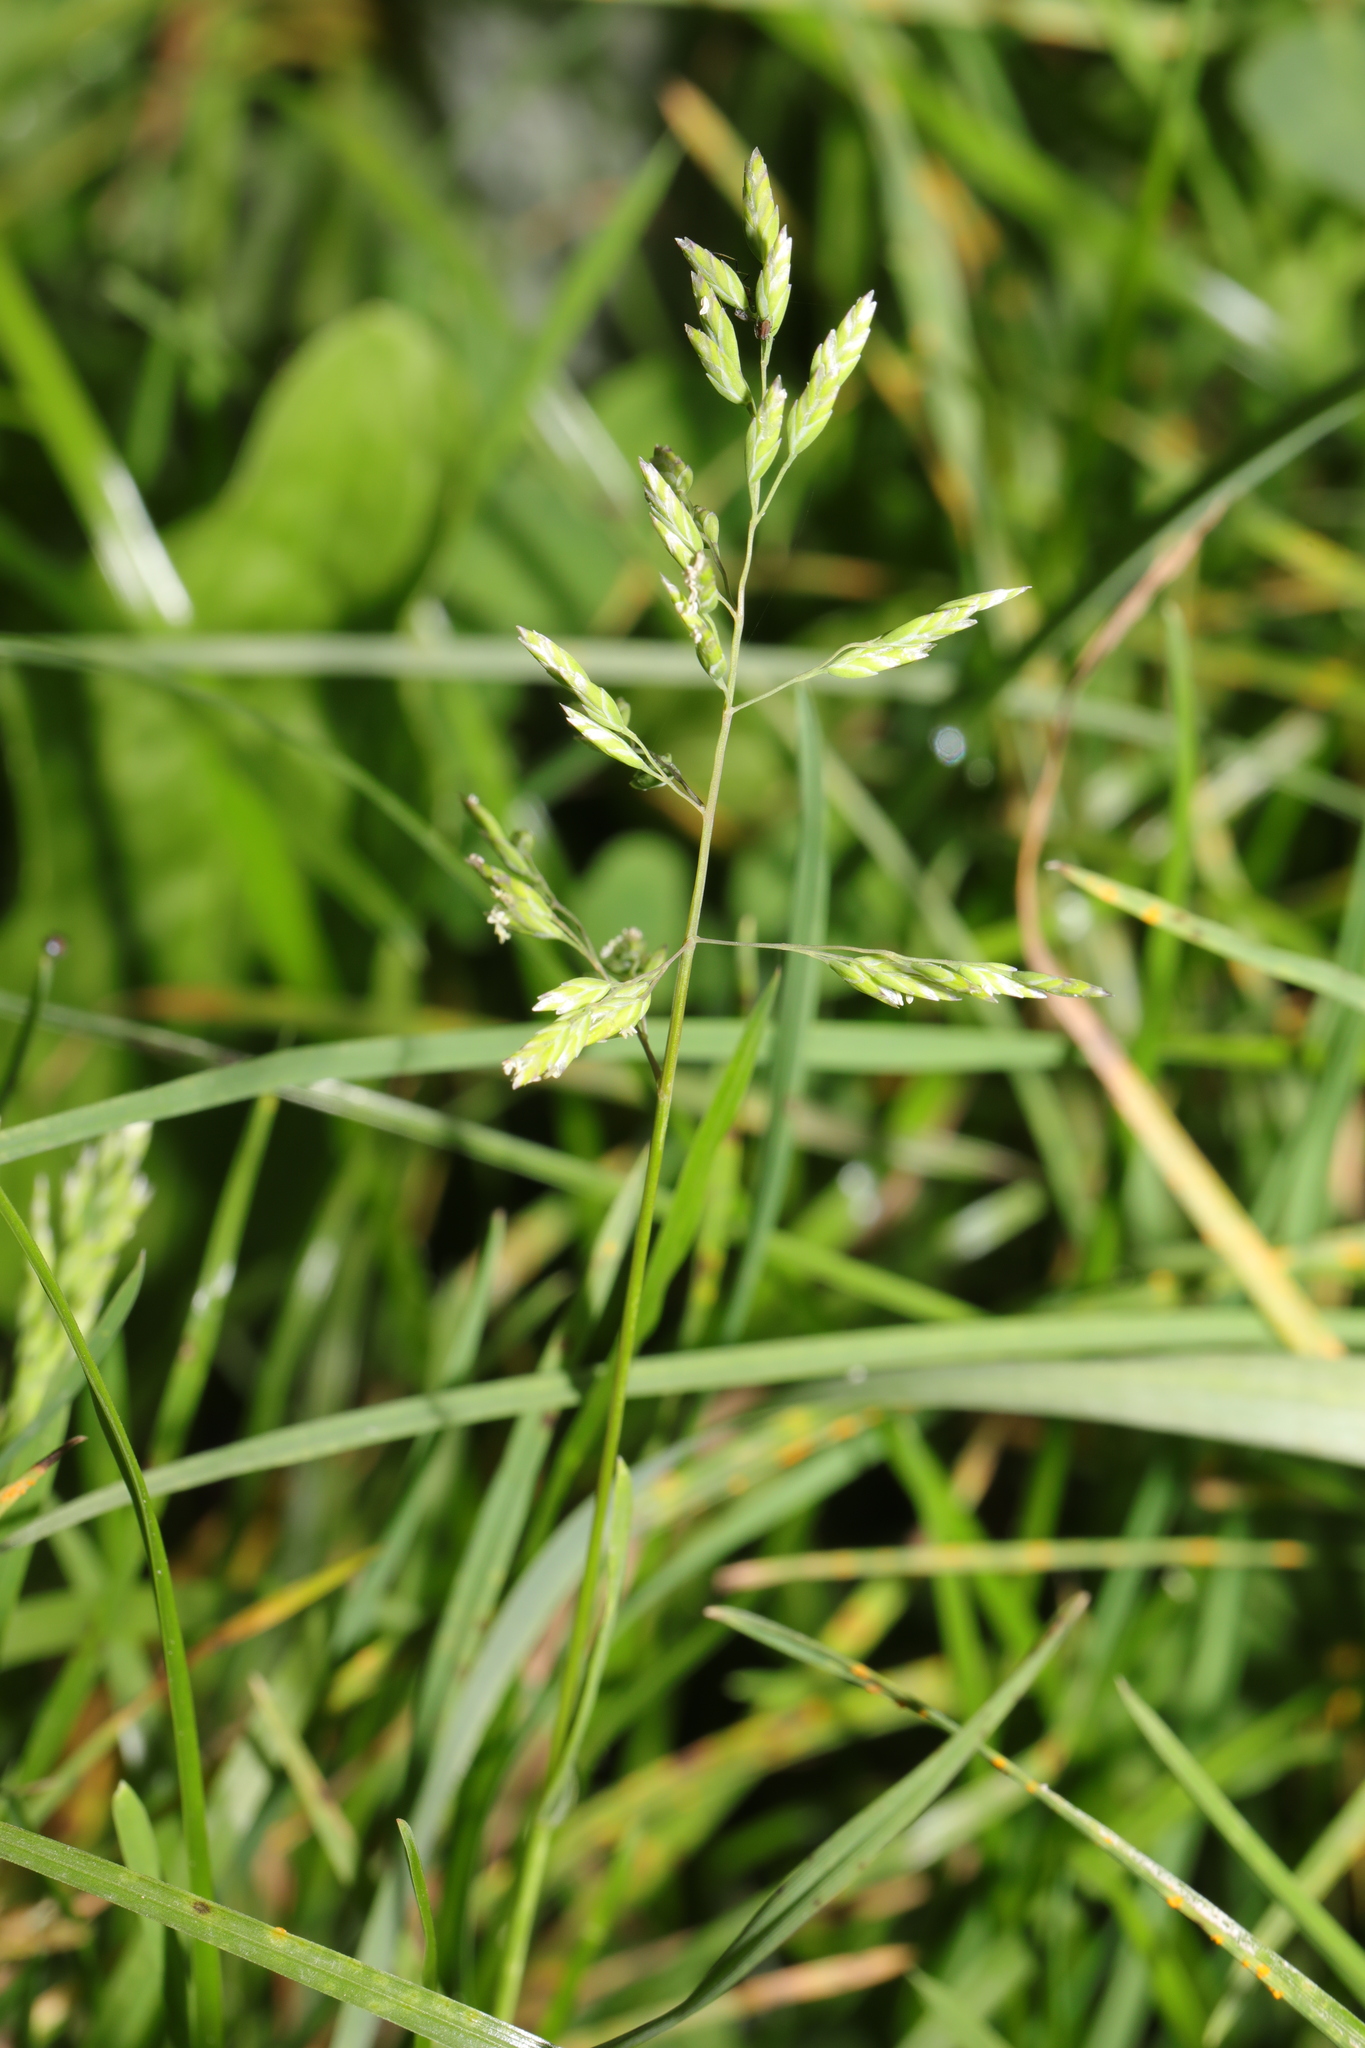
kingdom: Plantae
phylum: Tracheophyta
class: Liliopsida
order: Poales
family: Poaceae
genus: Poa
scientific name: Poa annua
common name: Annual bluegrass
